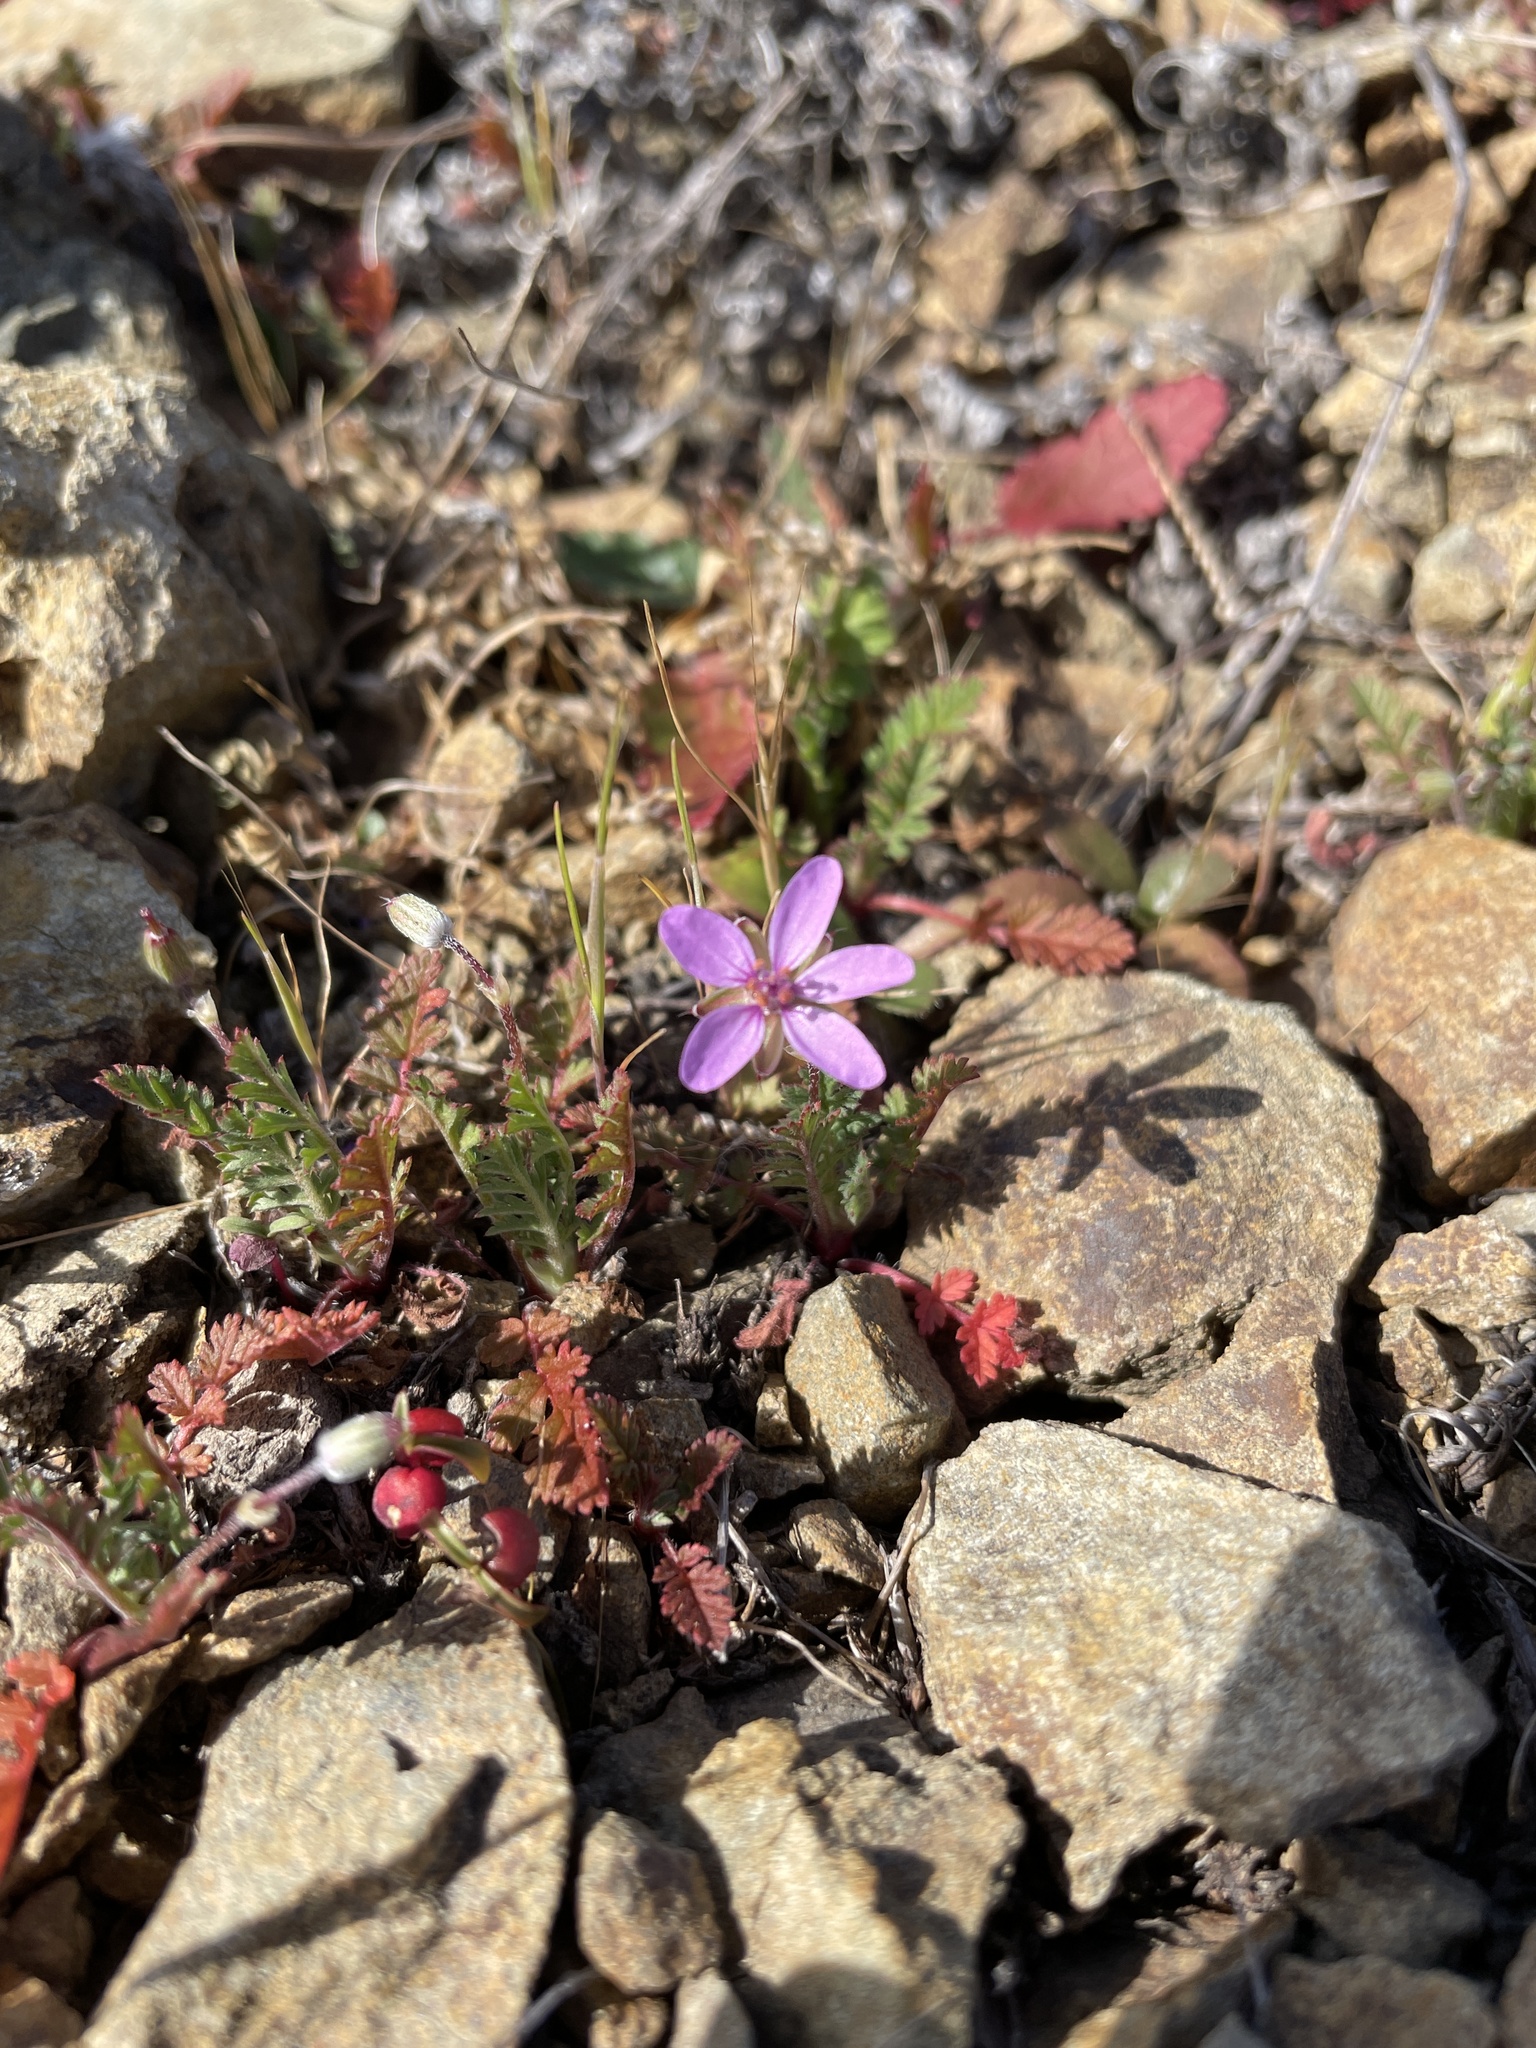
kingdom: Plantae
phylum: Tracheophyta
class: Magnoliopsida
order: Geraniales
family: Geraniaceae
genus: Erodium
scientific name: Erodium cicutarium
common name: Common stork's-bill
